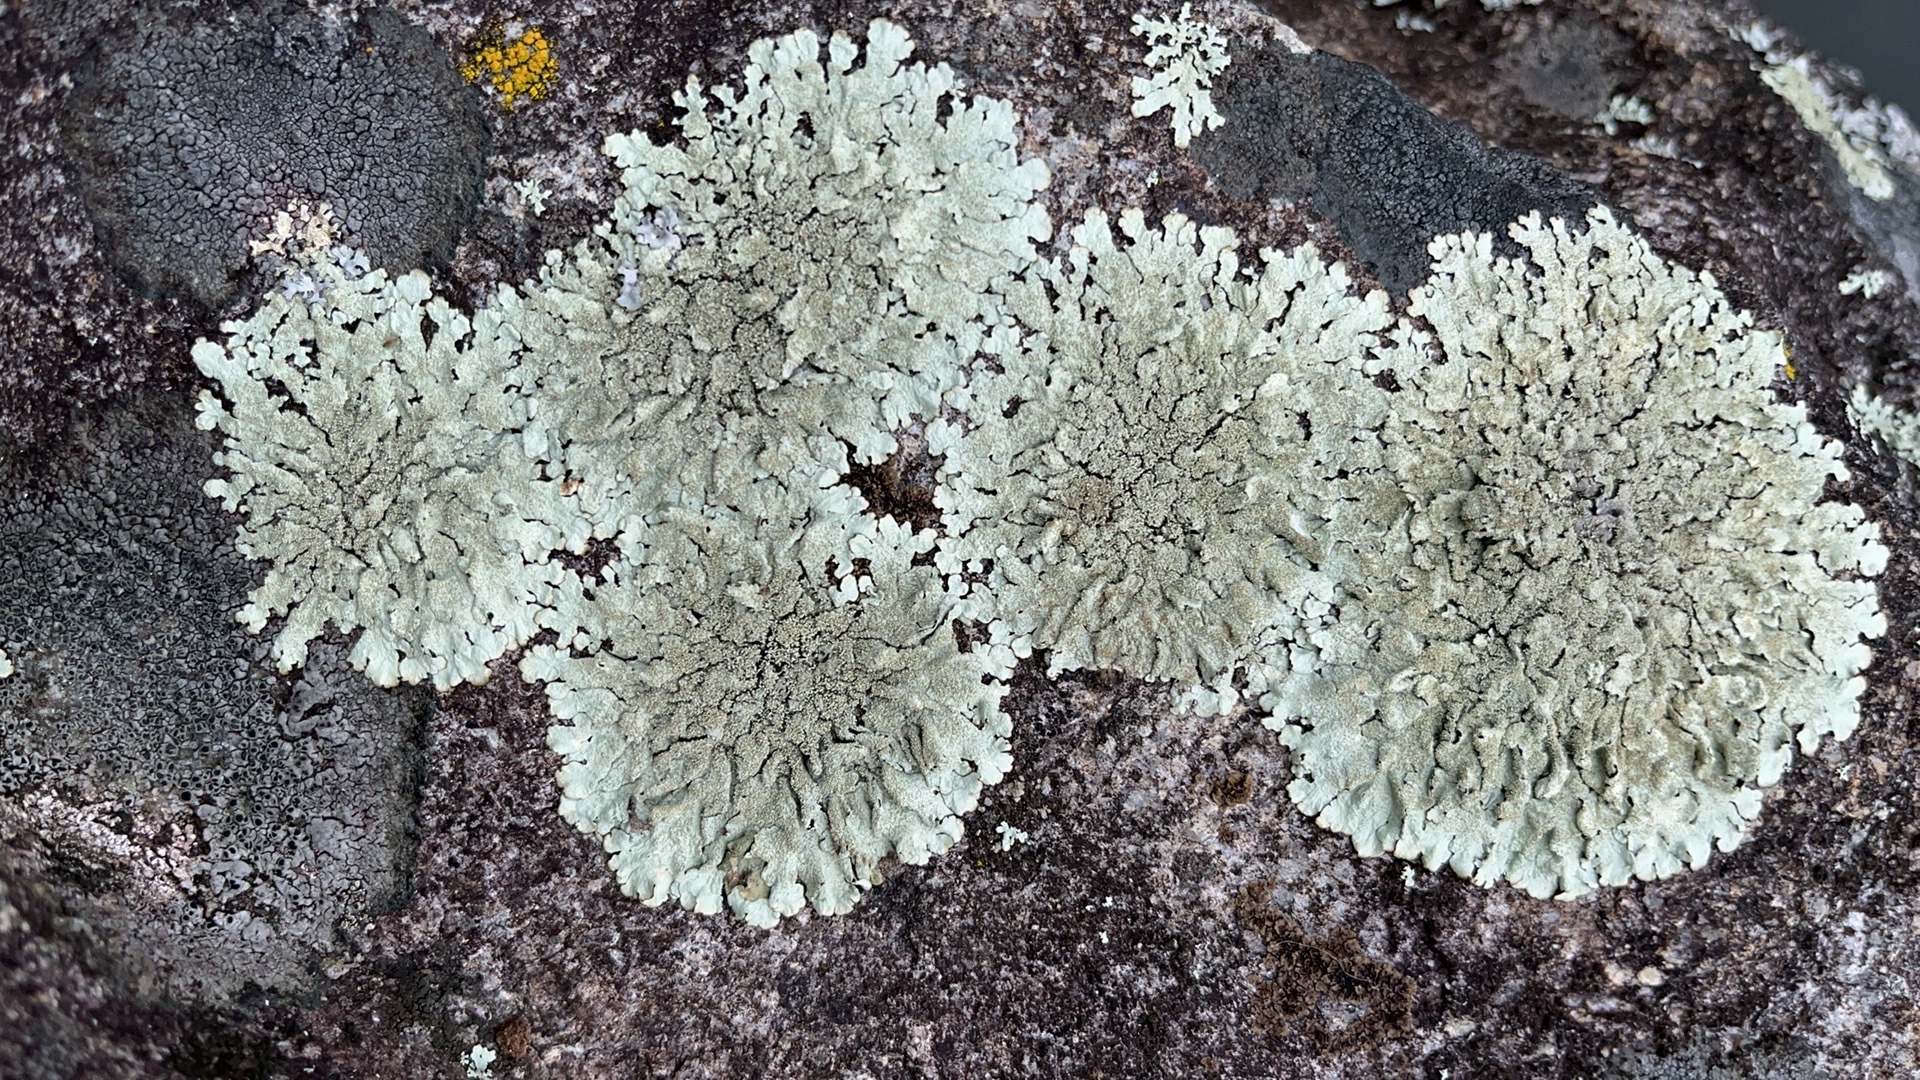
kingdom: Fungi
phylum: Ascomycota
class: Lecanoromycetes
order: Lecanorales
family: Parmeliaceae
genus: Flavoparmelia
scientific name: Flavoparmelia baltimorensis
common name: Rock greenshield
